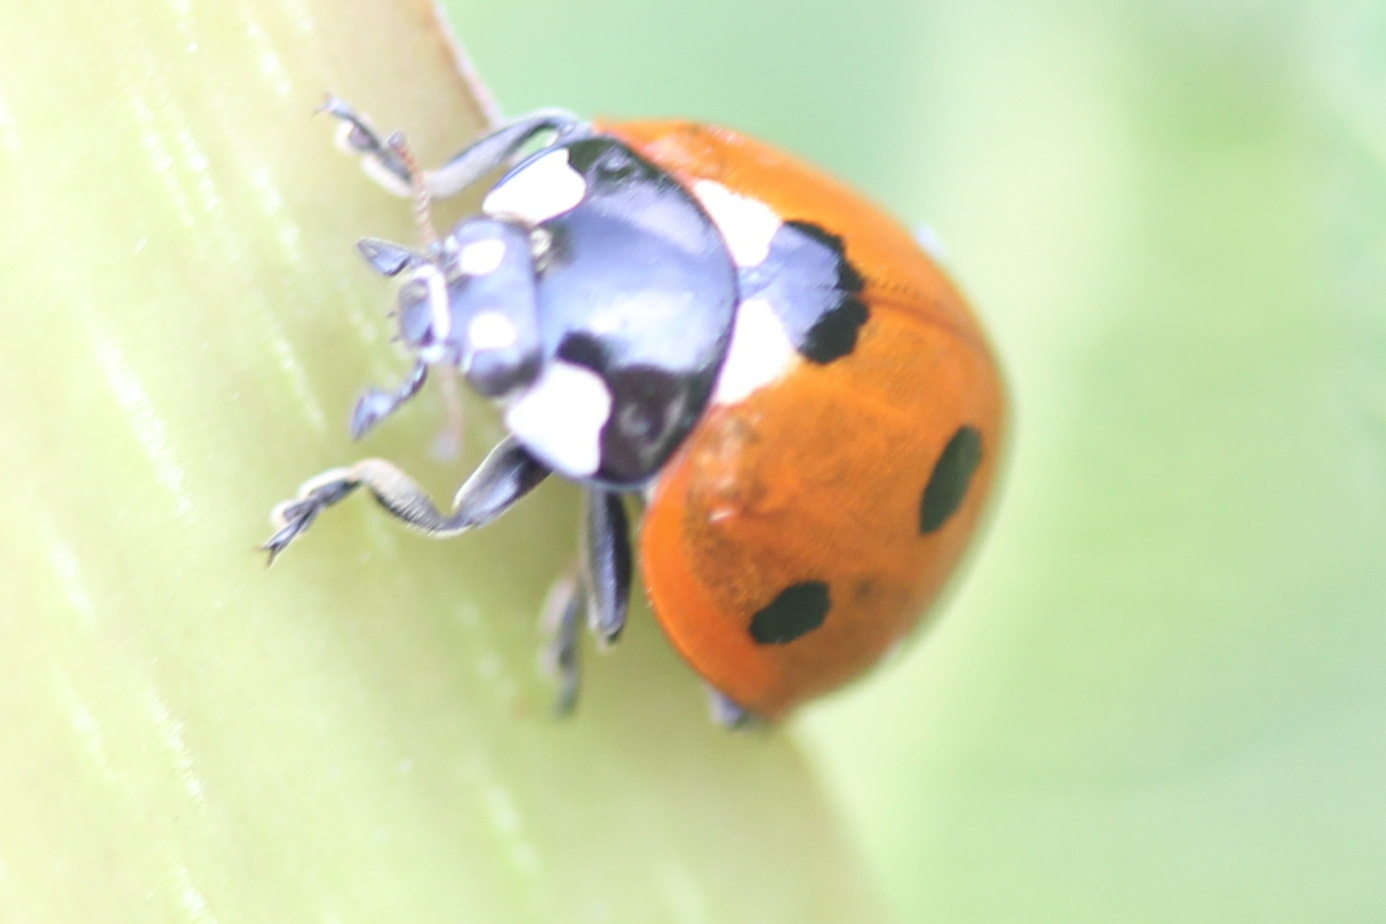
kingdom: Animalia
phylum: Arthropoda
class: Insecta
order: Coleoptera
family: Coccinellidae
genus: Coccinella
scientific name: Coccinella septempunctata
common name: Sevenspotted lady beetle
